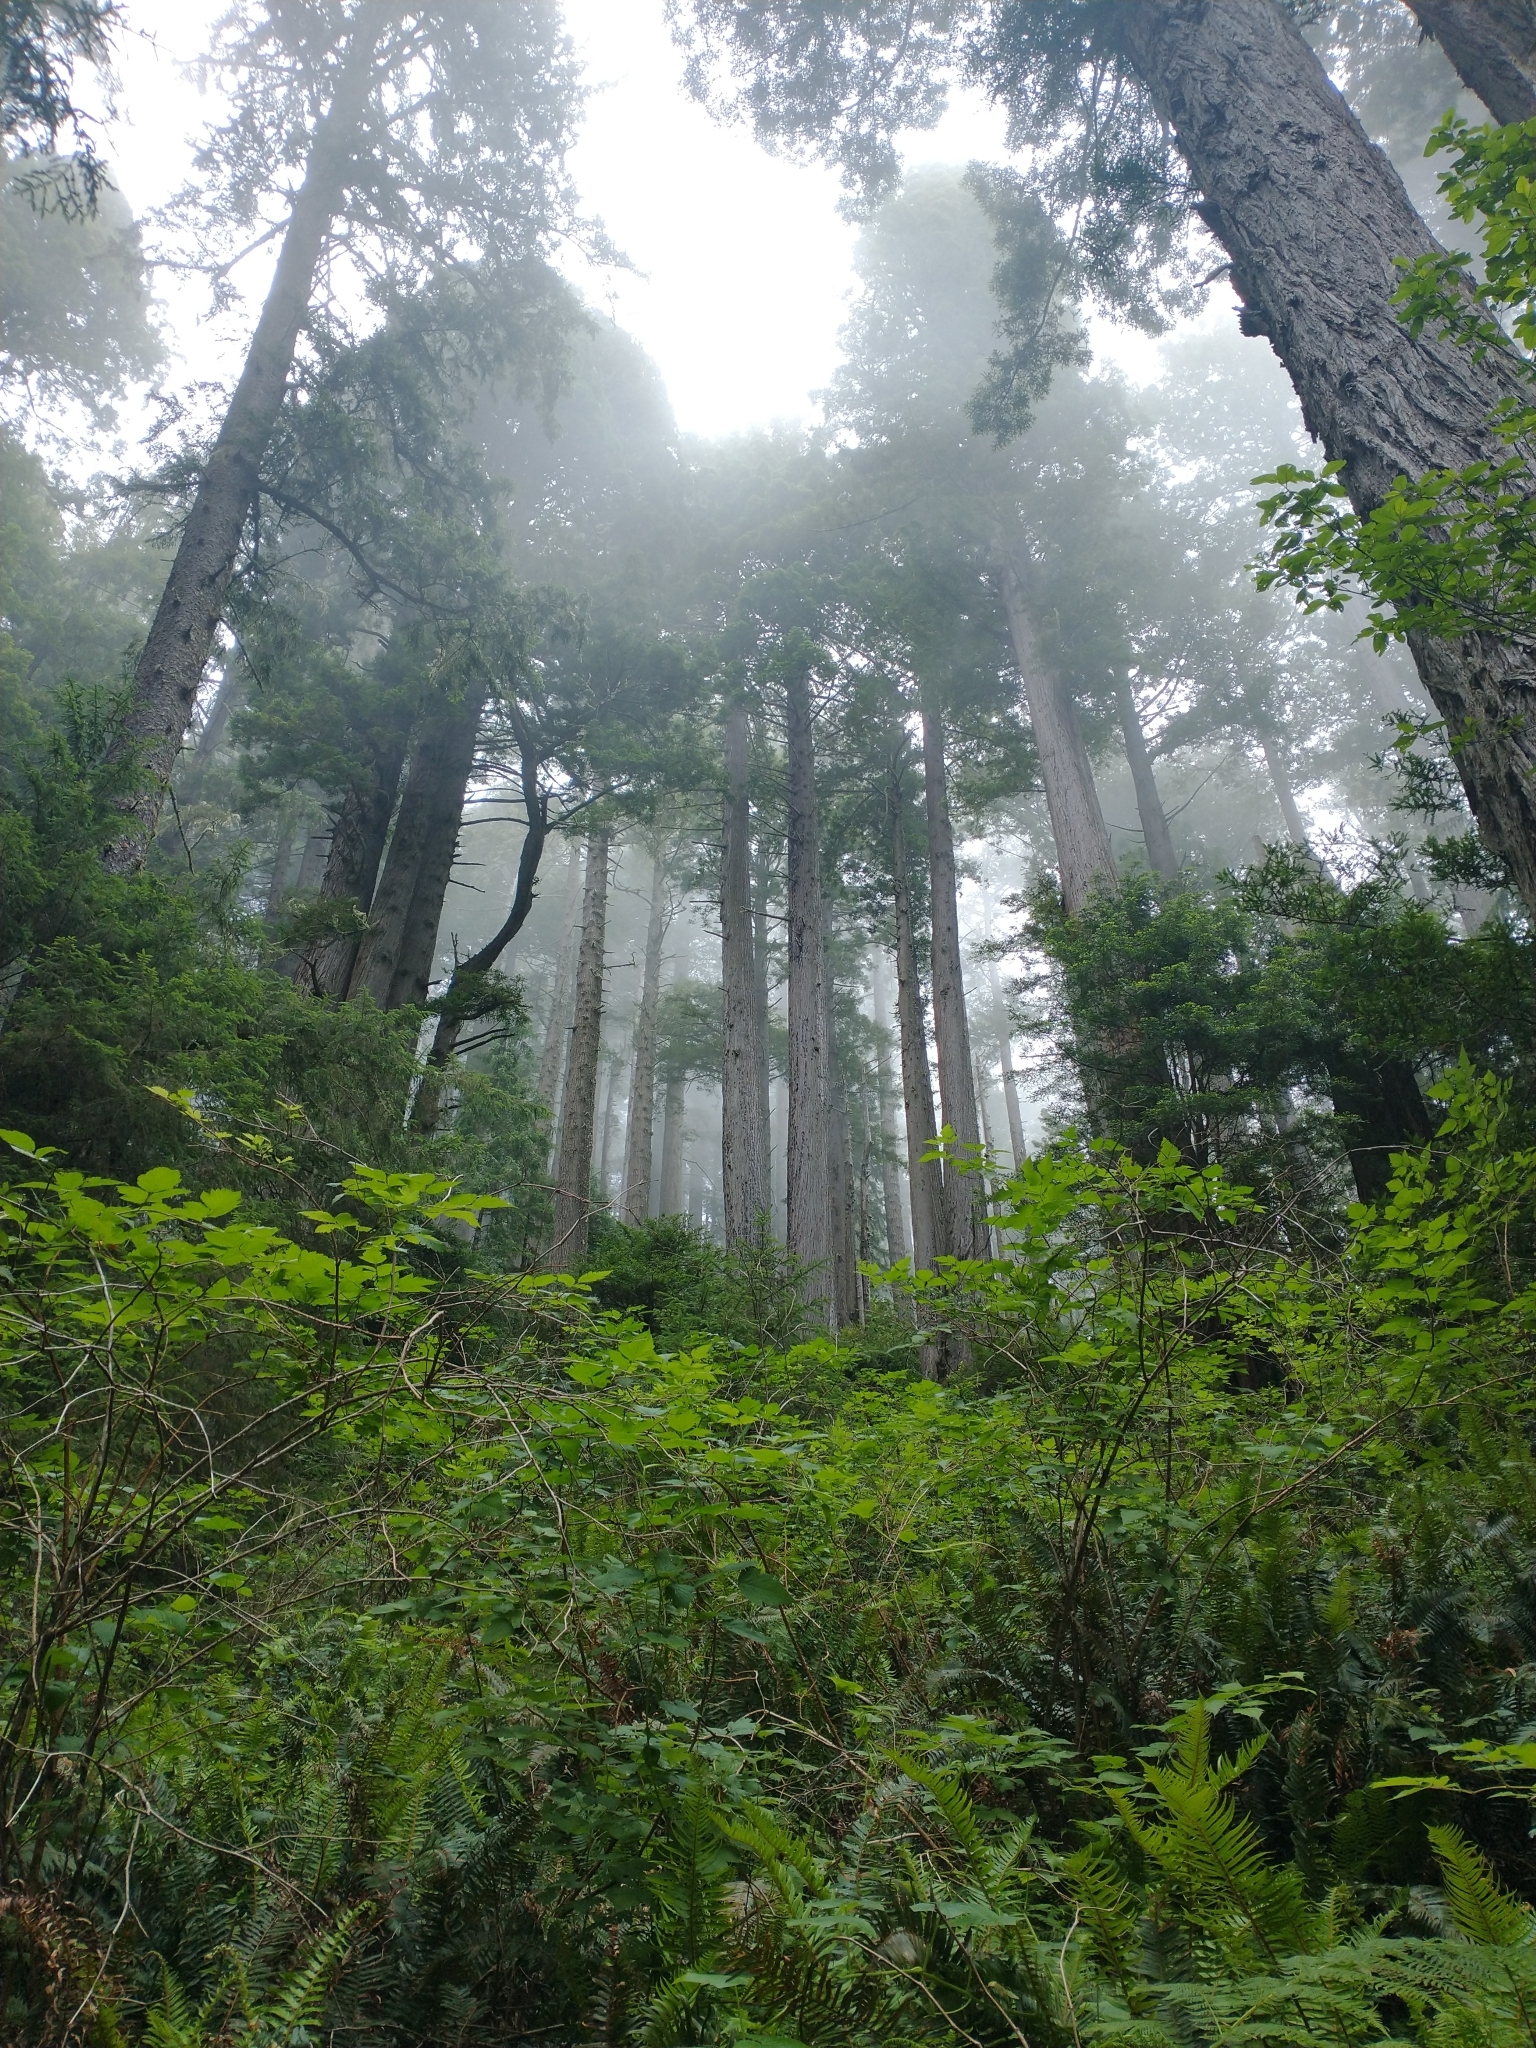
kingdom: Plantae
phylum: Tracheophyta
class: Magnoliopsida
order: Rosales
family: Rosaceae
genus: Rubus
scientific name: Rubus spectabilis
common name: Salmonberry
